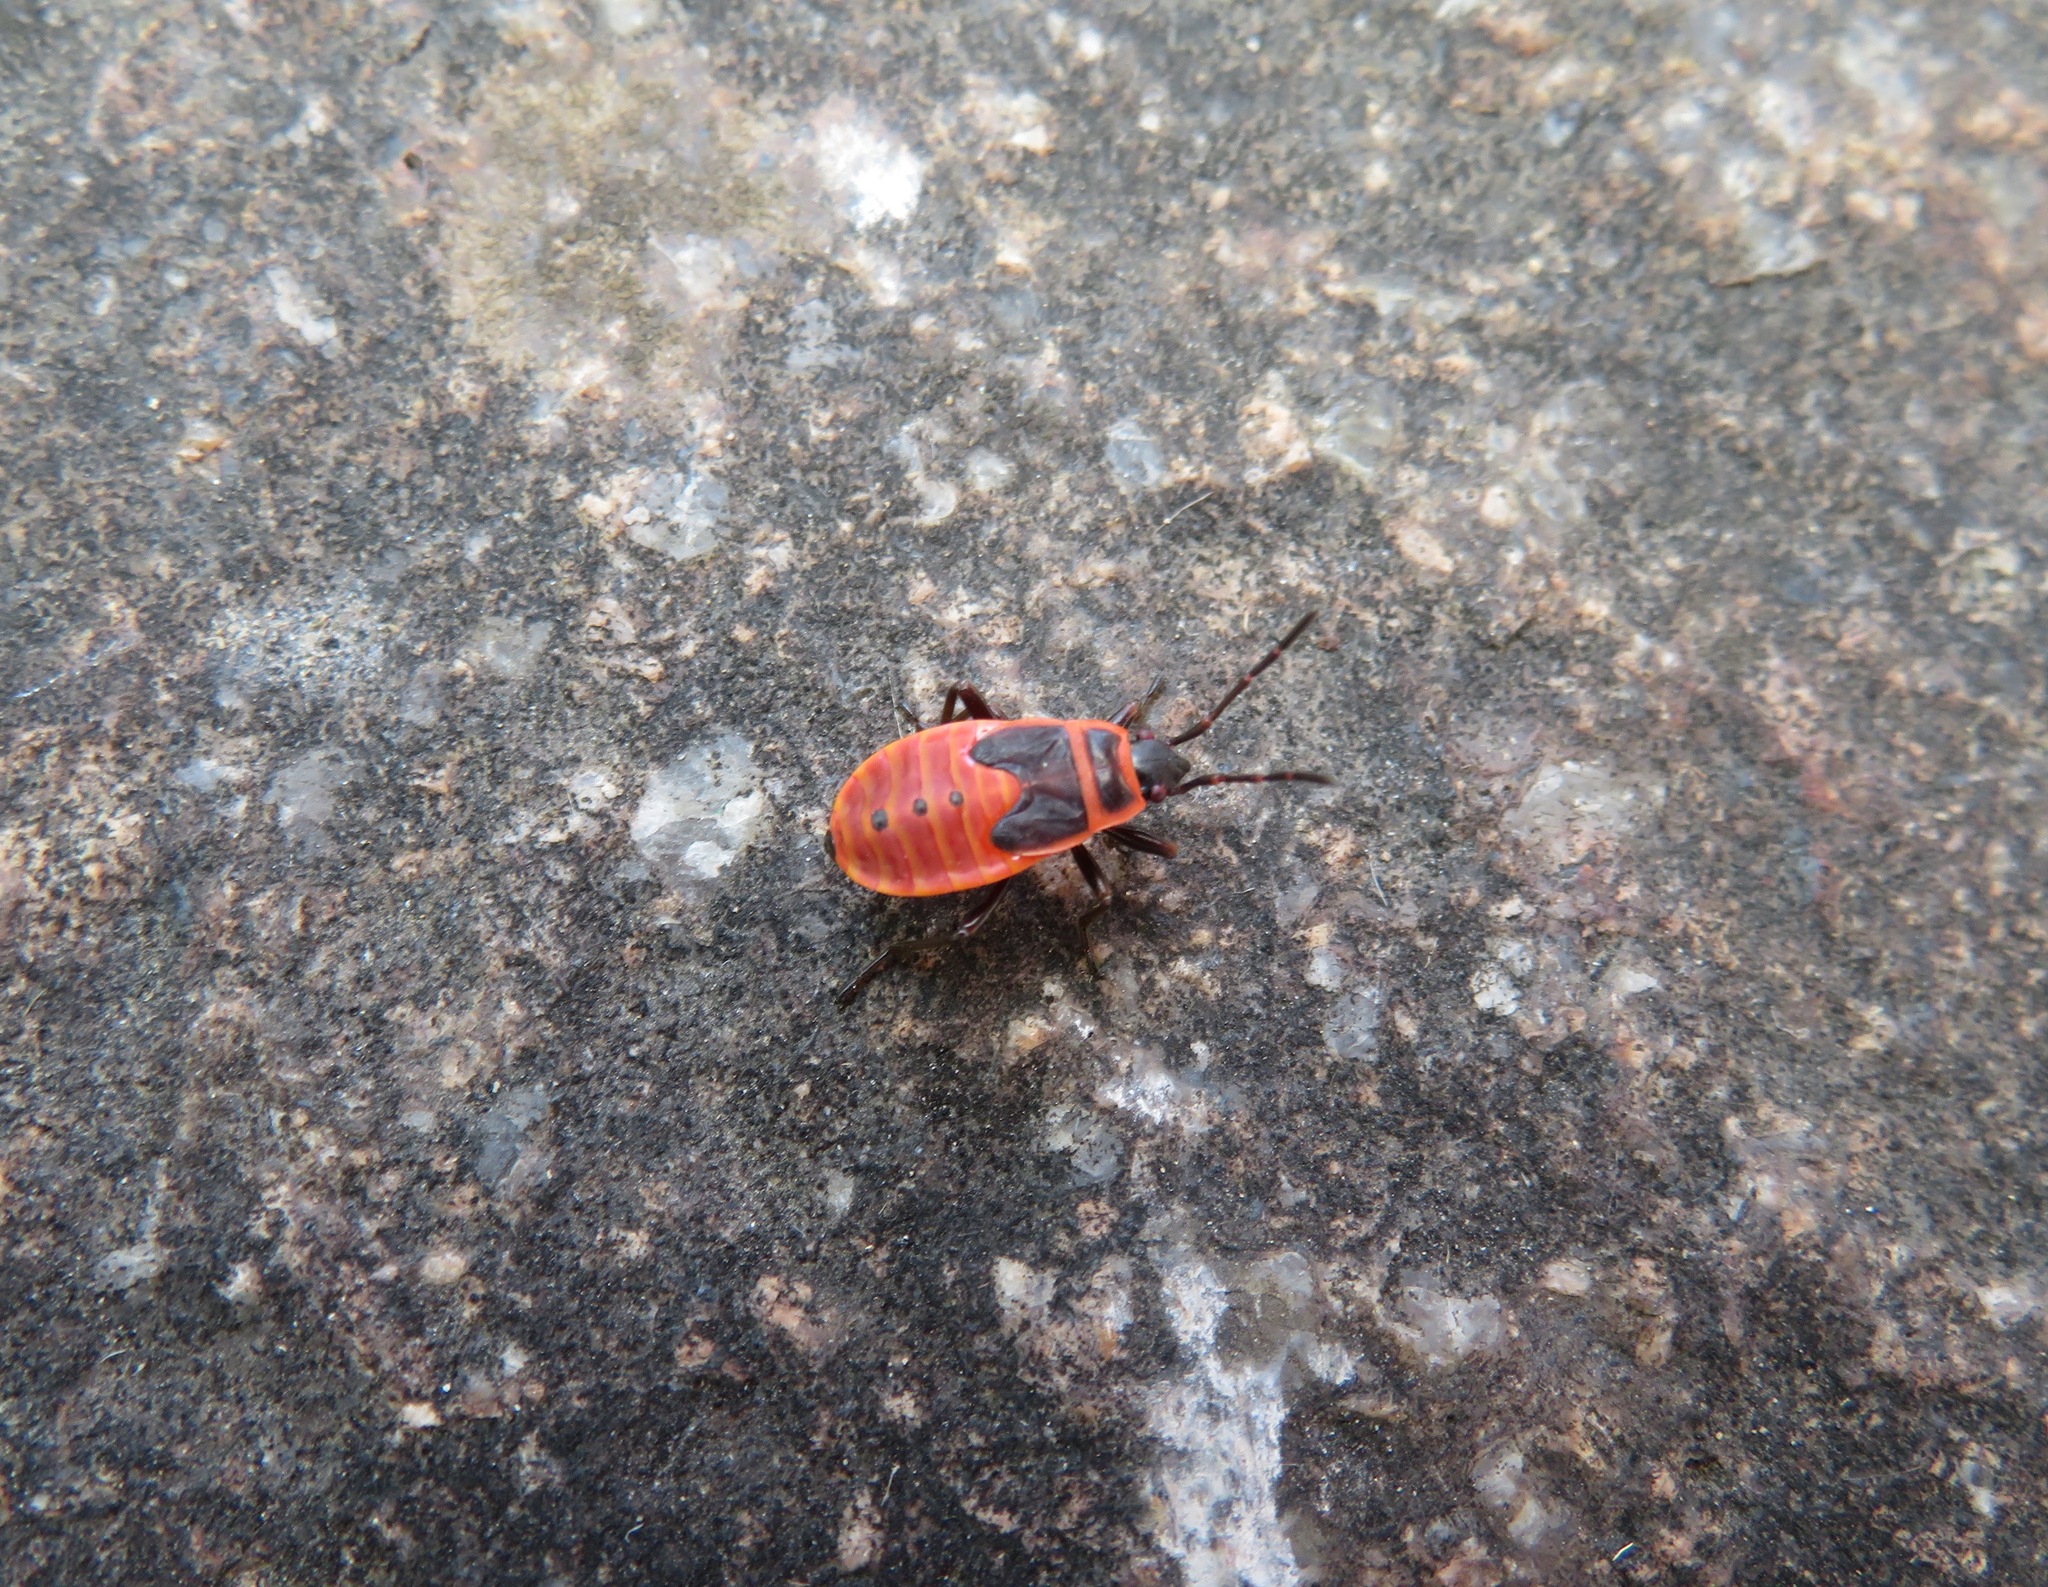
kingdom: Animalia
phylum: Arthropoda
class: Insecta
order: Hemiptera
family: Pyrrhocoridae
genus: Pyrrhocoris
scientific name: Pyrrhocoris apterus
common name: Firebug
